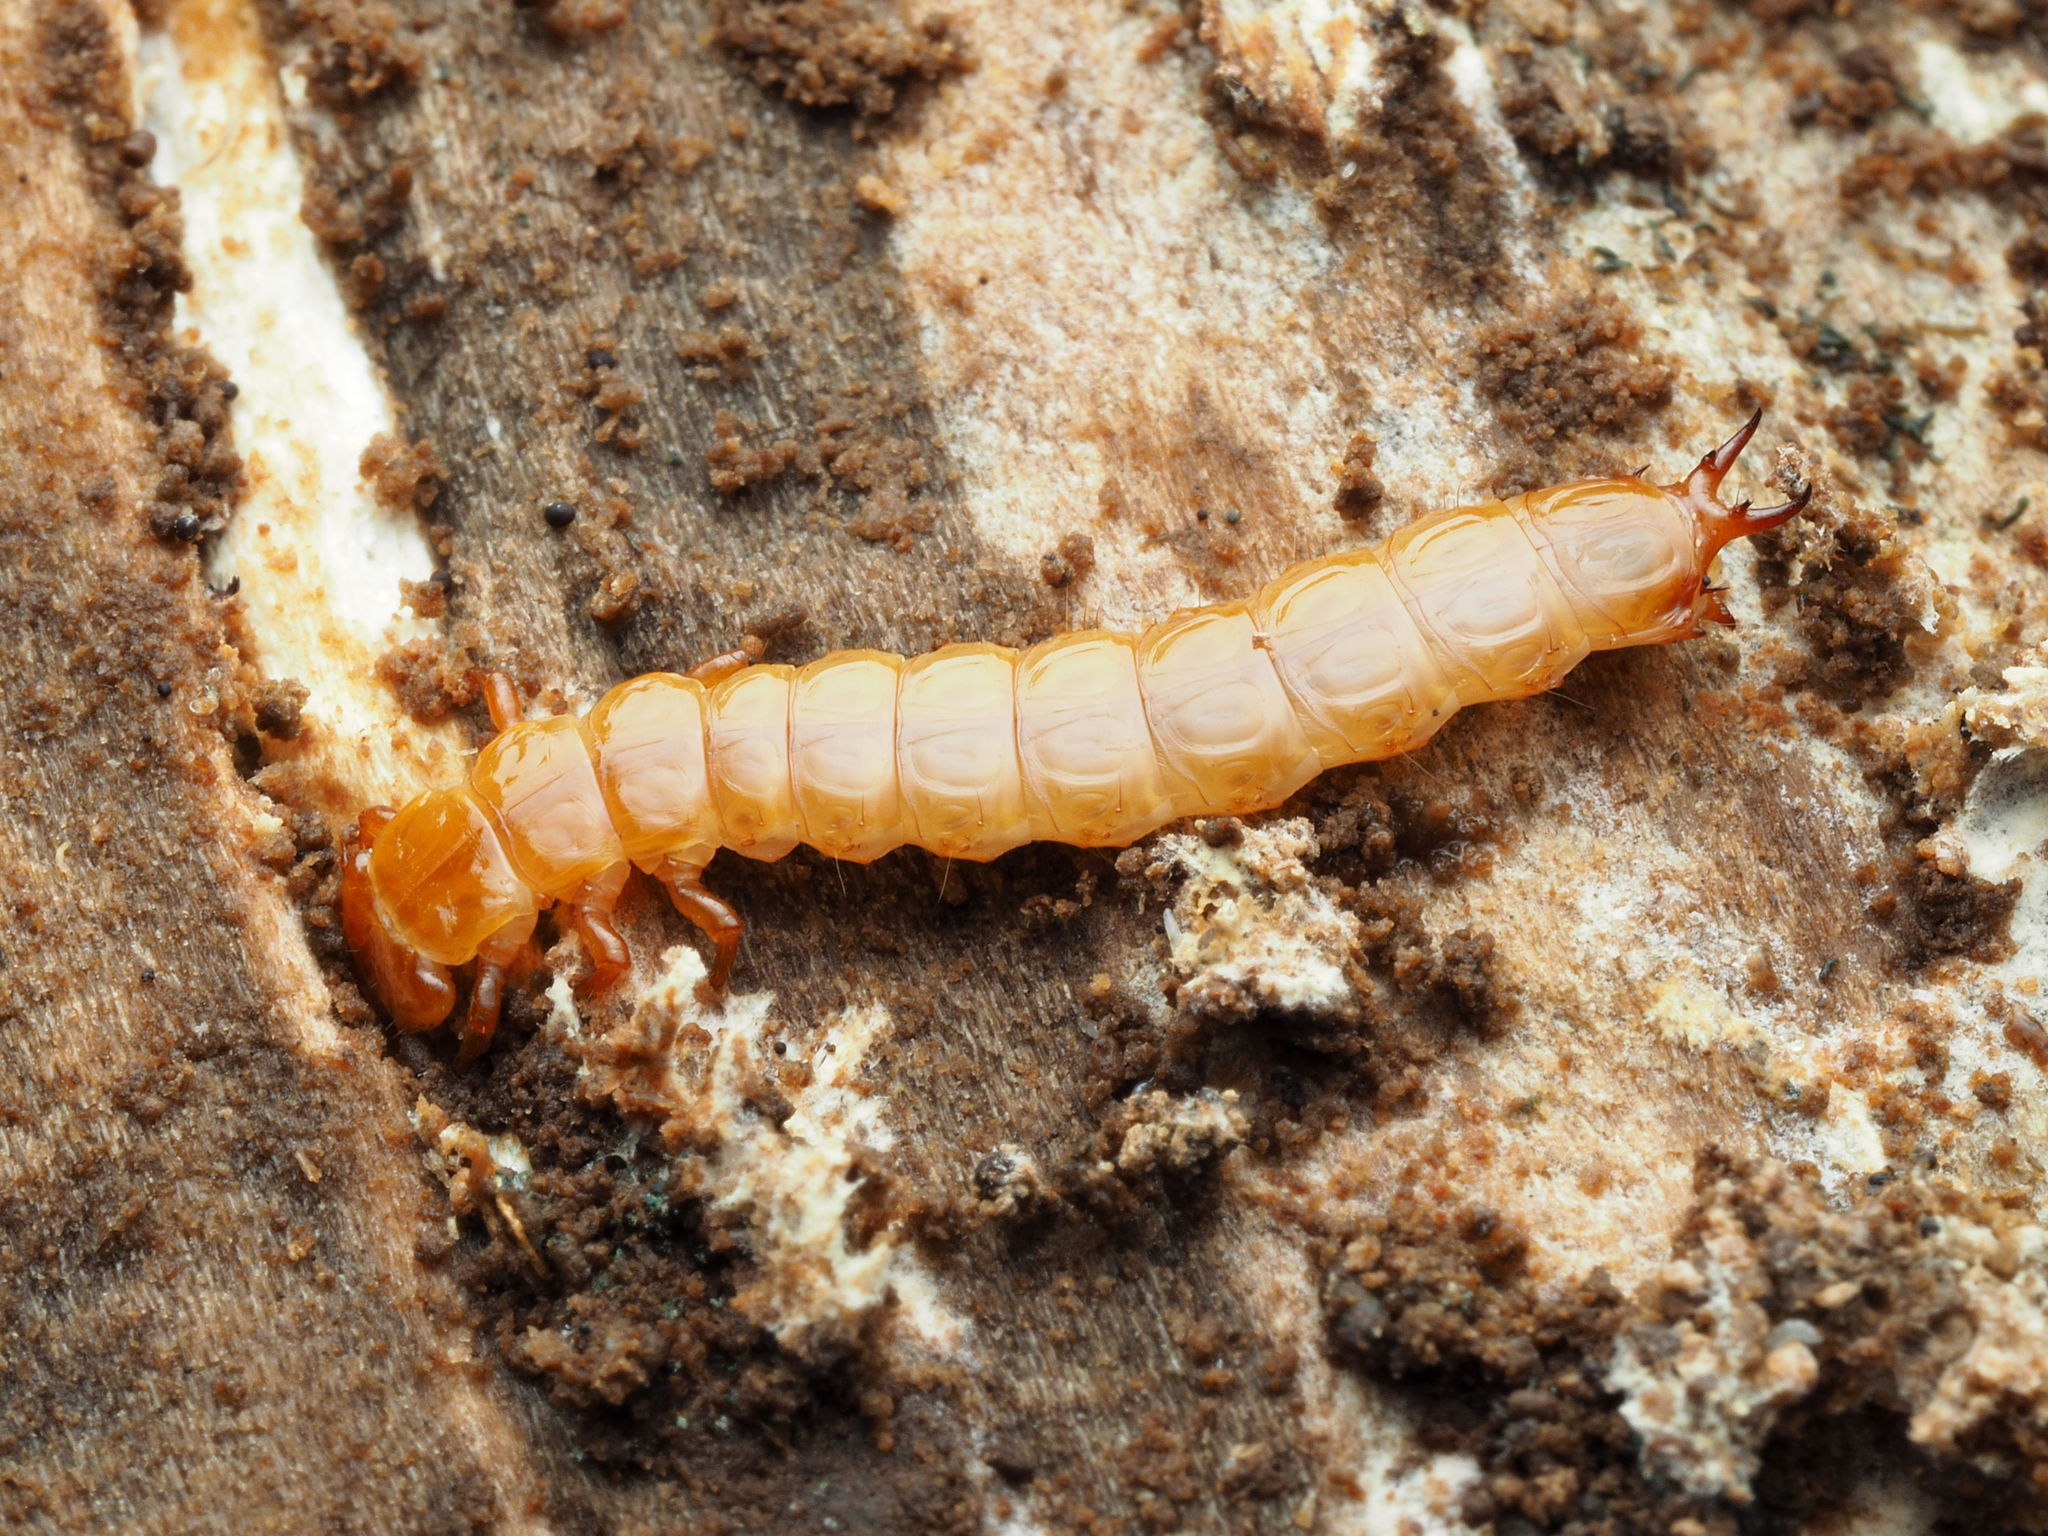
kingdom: Animalia
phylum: Arthropoda
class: Insecta
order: Coleoptera
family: Cucujidae
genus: Cucujus
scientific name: Cucujus clavipes
